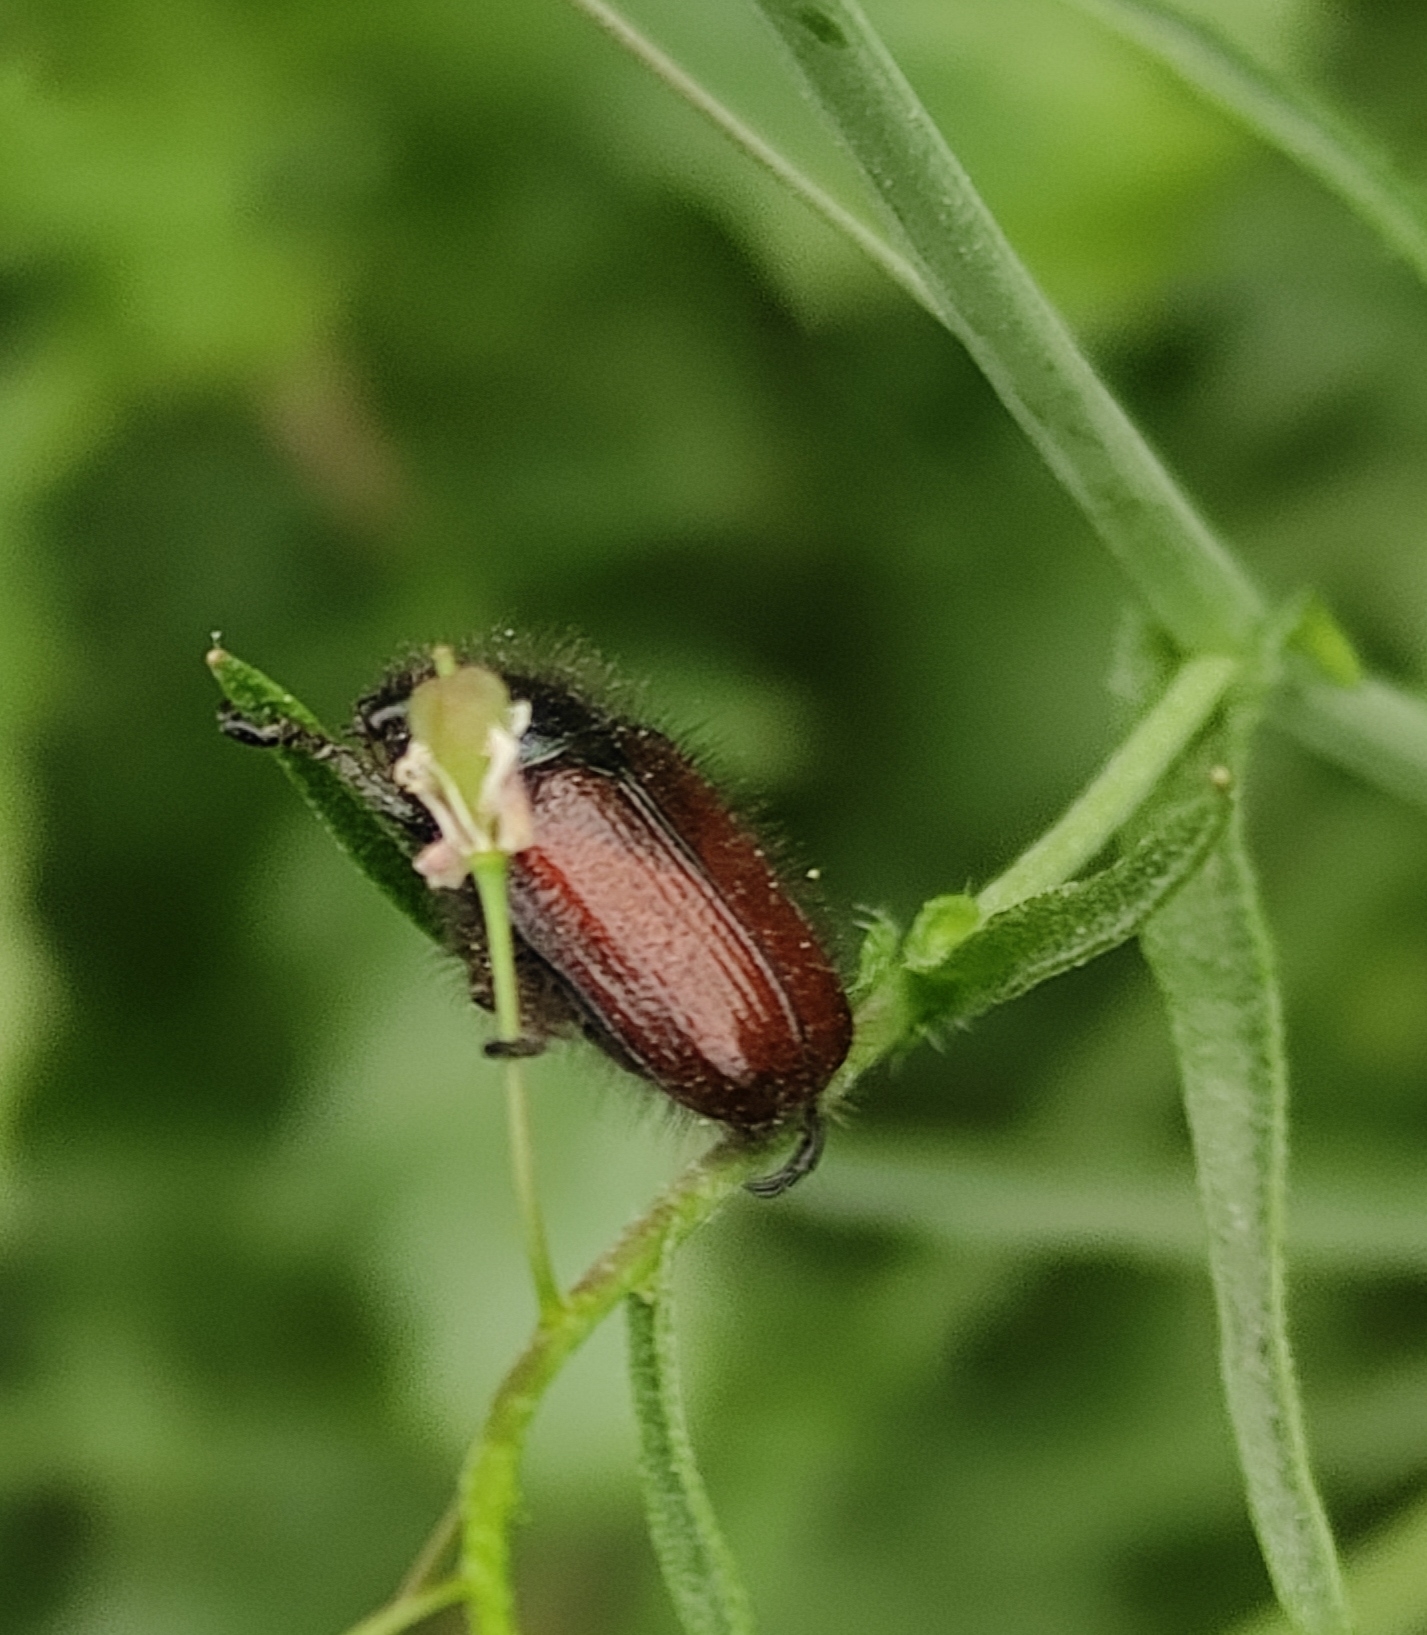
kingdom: Animalia
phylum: Arthropoda
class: Insecta
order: Coleoptera
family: Scarabaeidae
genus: Phyllopertha
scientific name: Phyllopertha horticola
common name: Garden chafer
